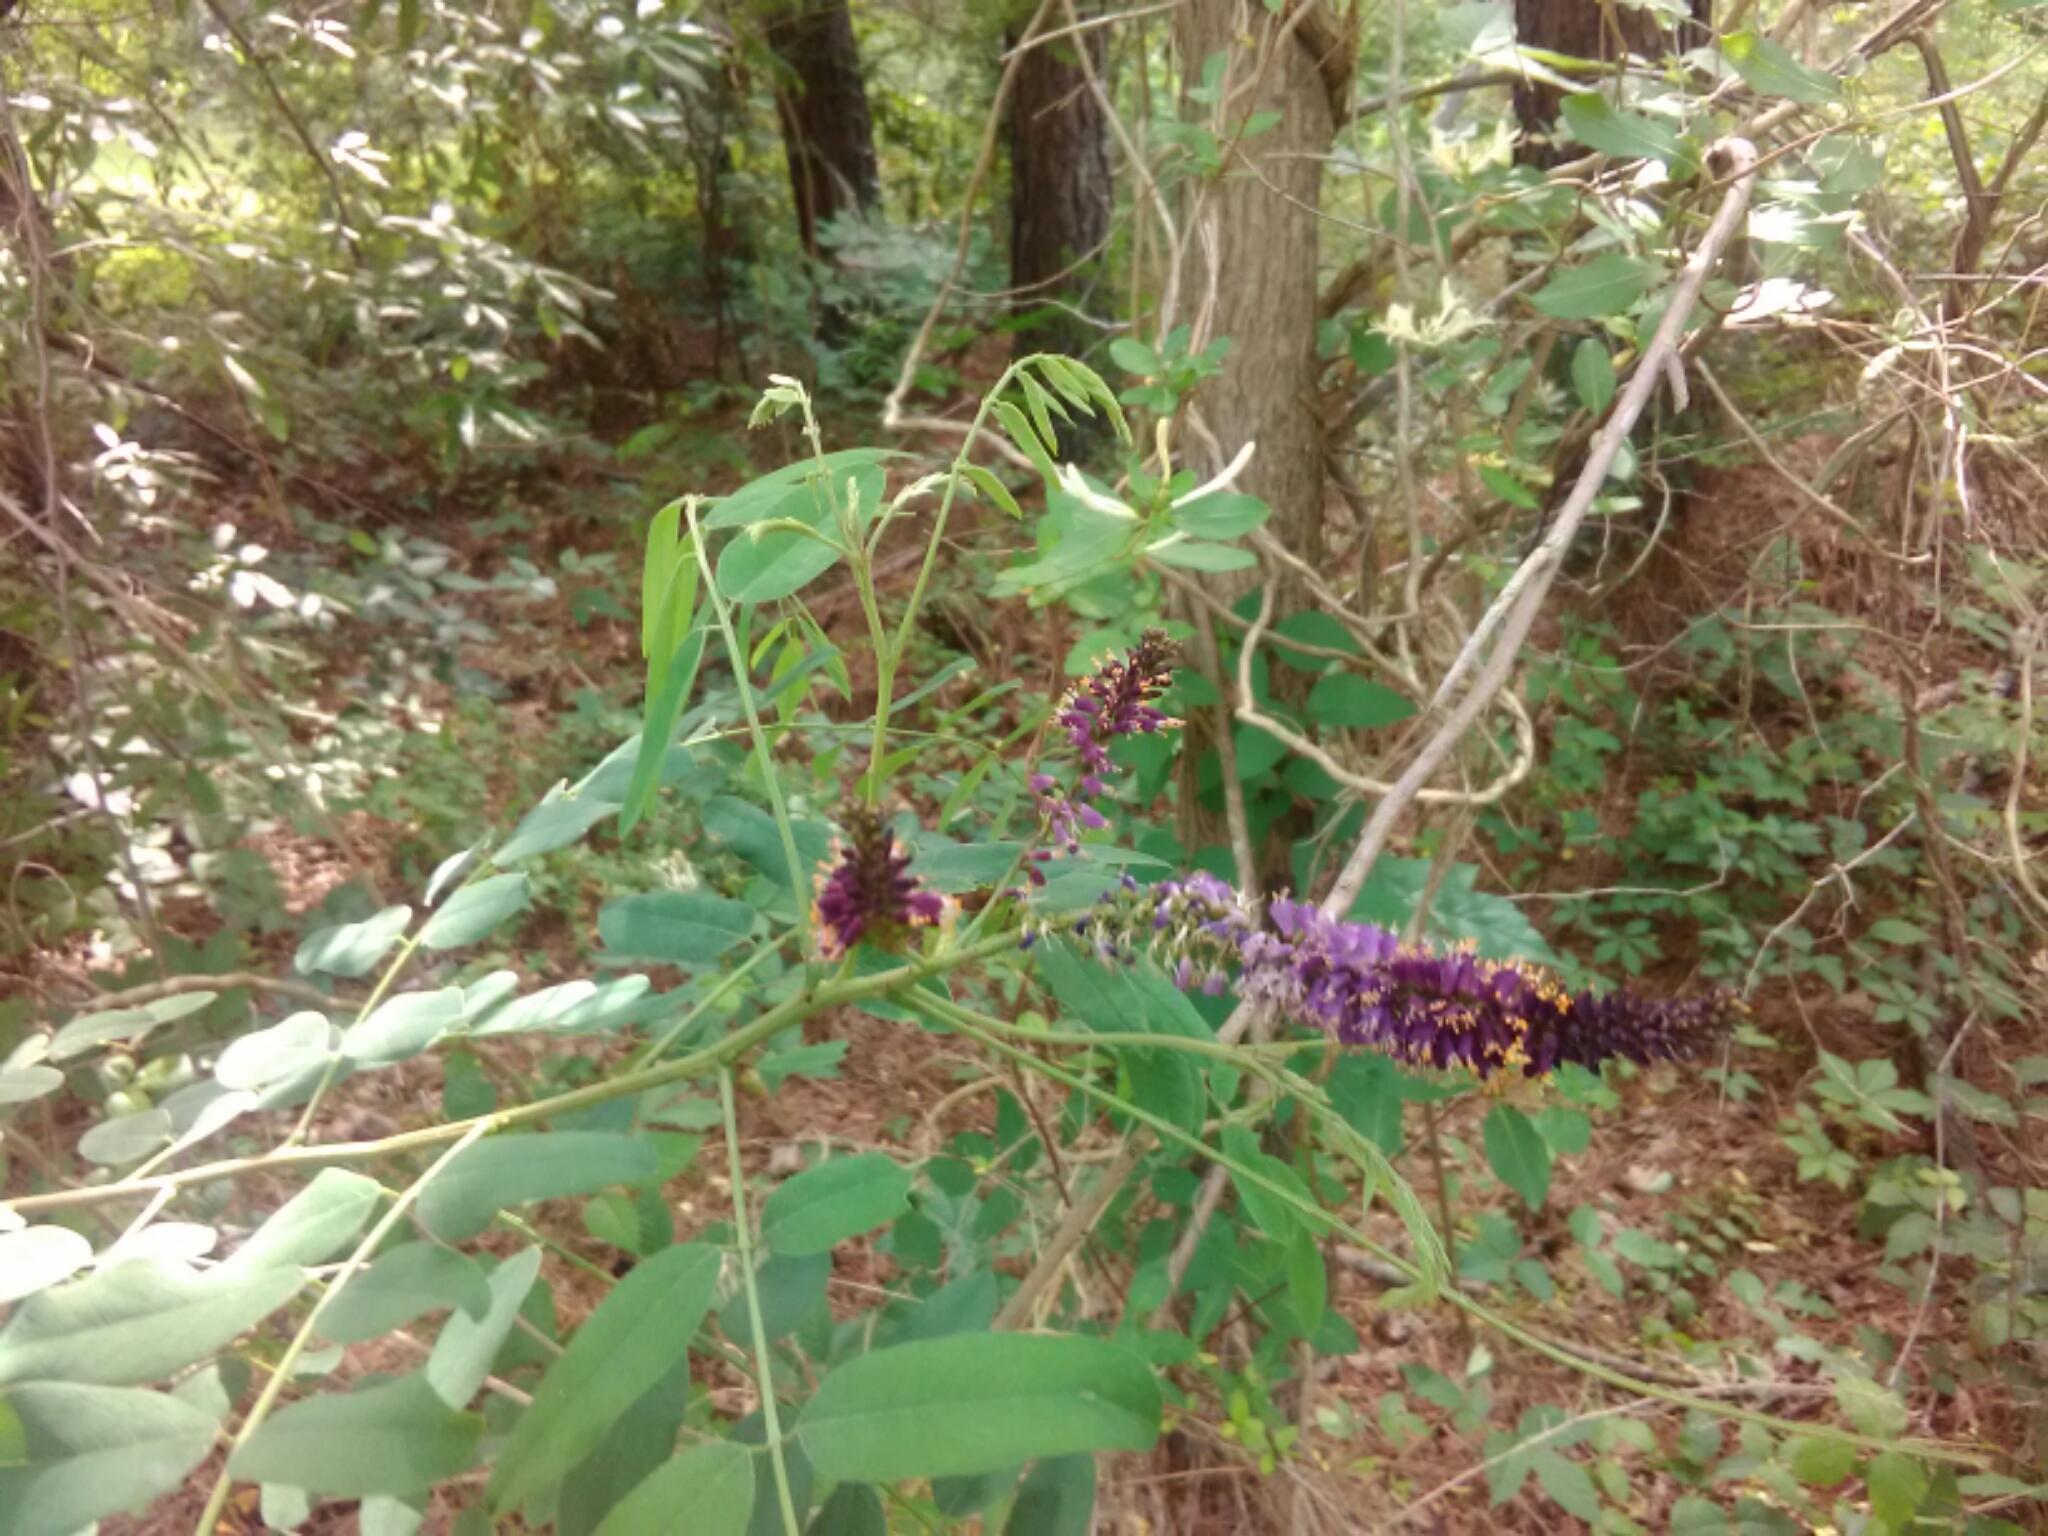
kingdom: Plantae
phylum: Tracheophyta
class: Magnoliopsida
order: Fabales
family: Fabaceae
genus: Amorpha
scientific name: Amorpha fruticosa
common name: False indigo
